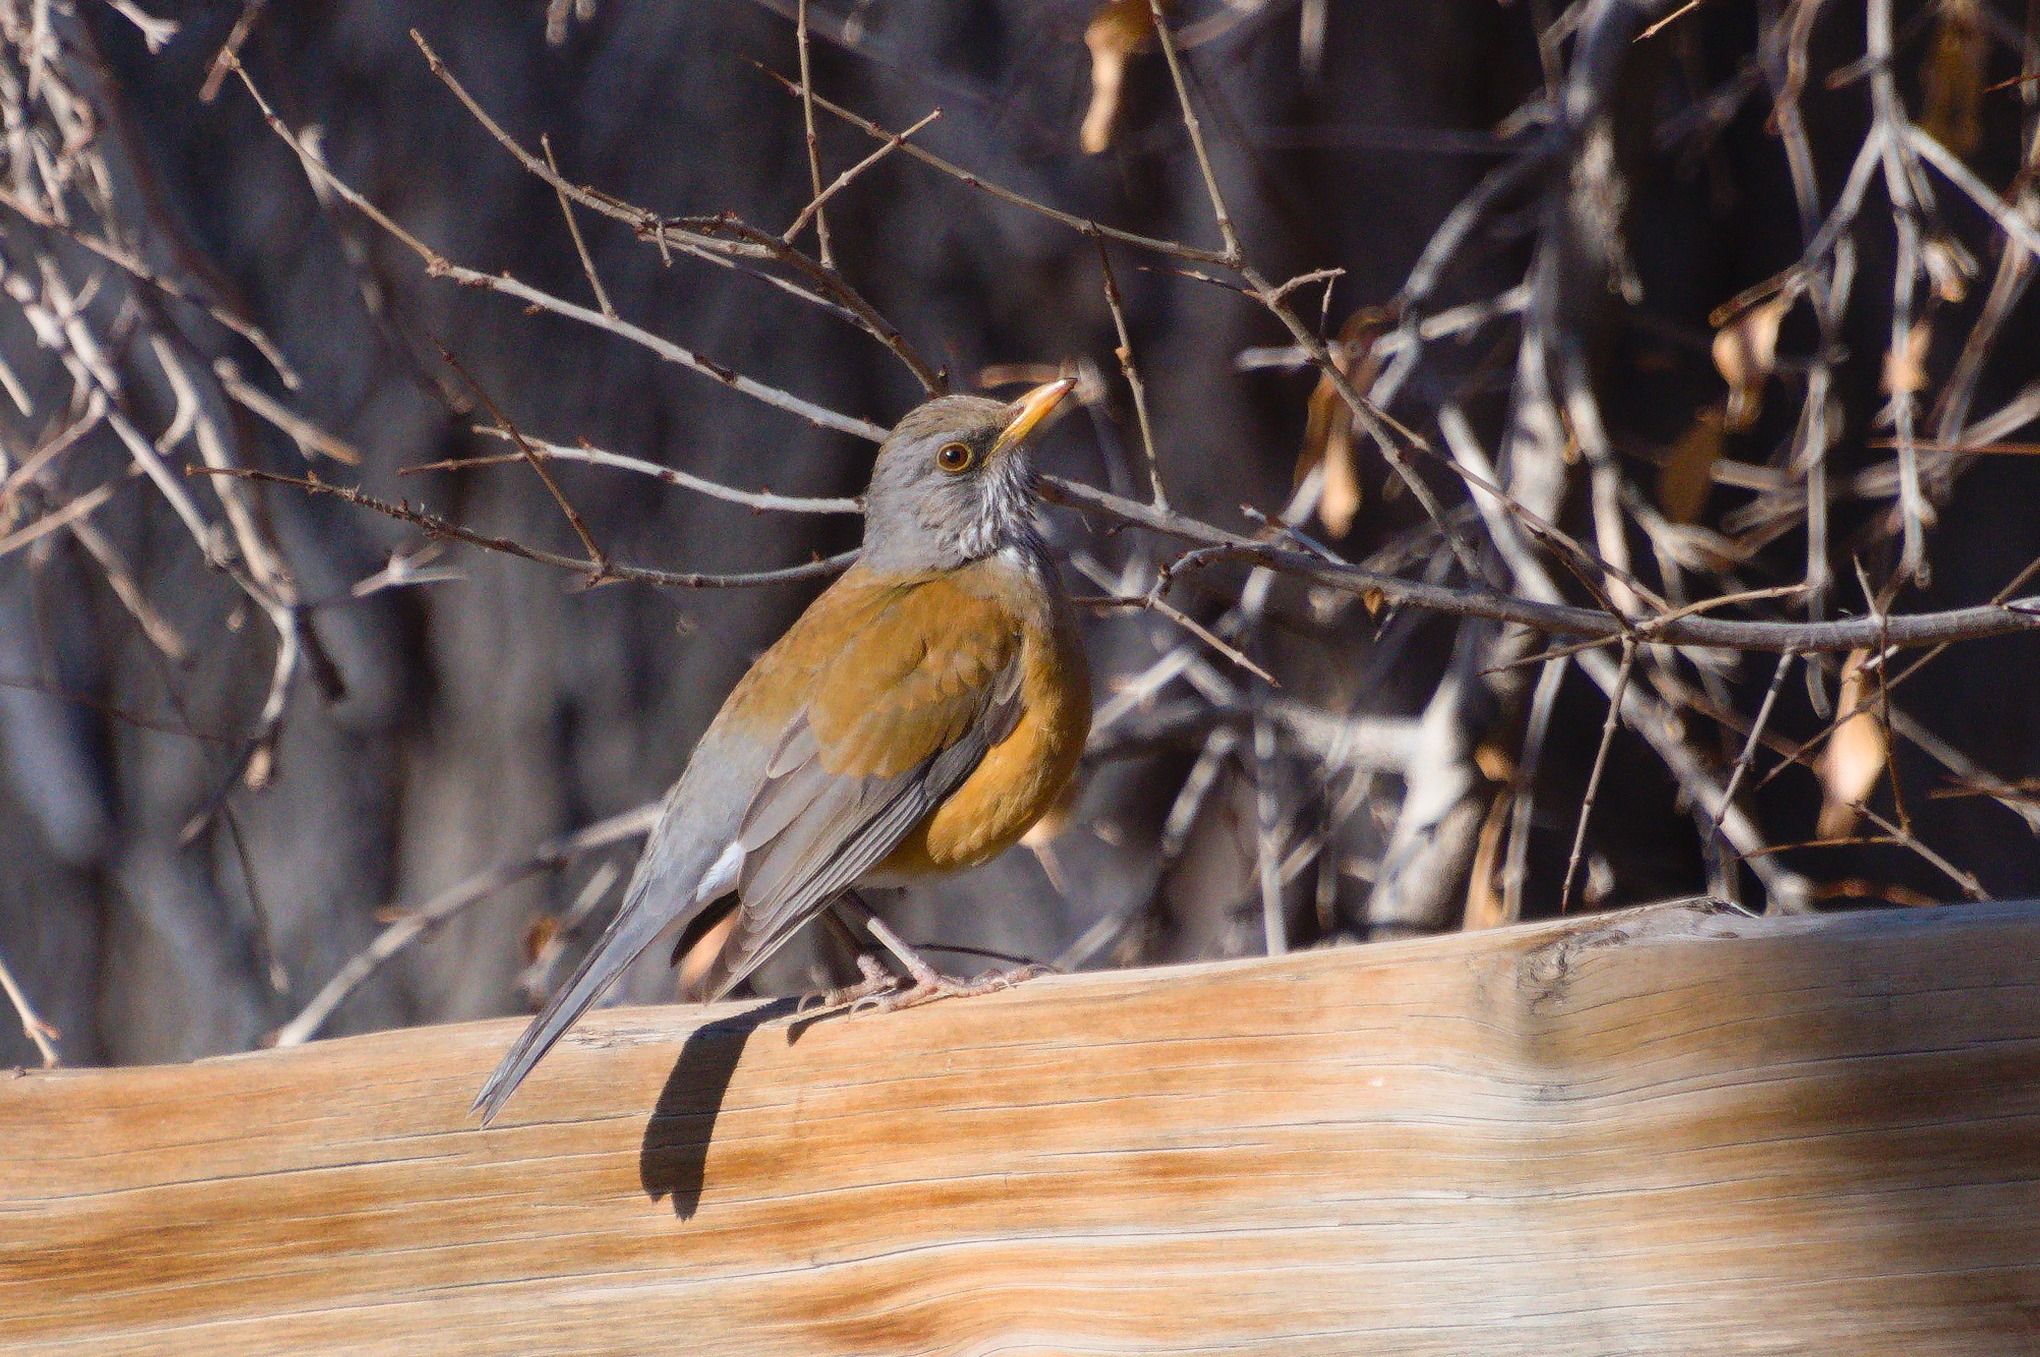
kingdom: Animalia
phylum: Chordata
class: Aves
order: Passeriformes
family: Turdidae
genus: Turdus
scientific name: Turdus rufopalliatus
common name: Rufous-backed robin
